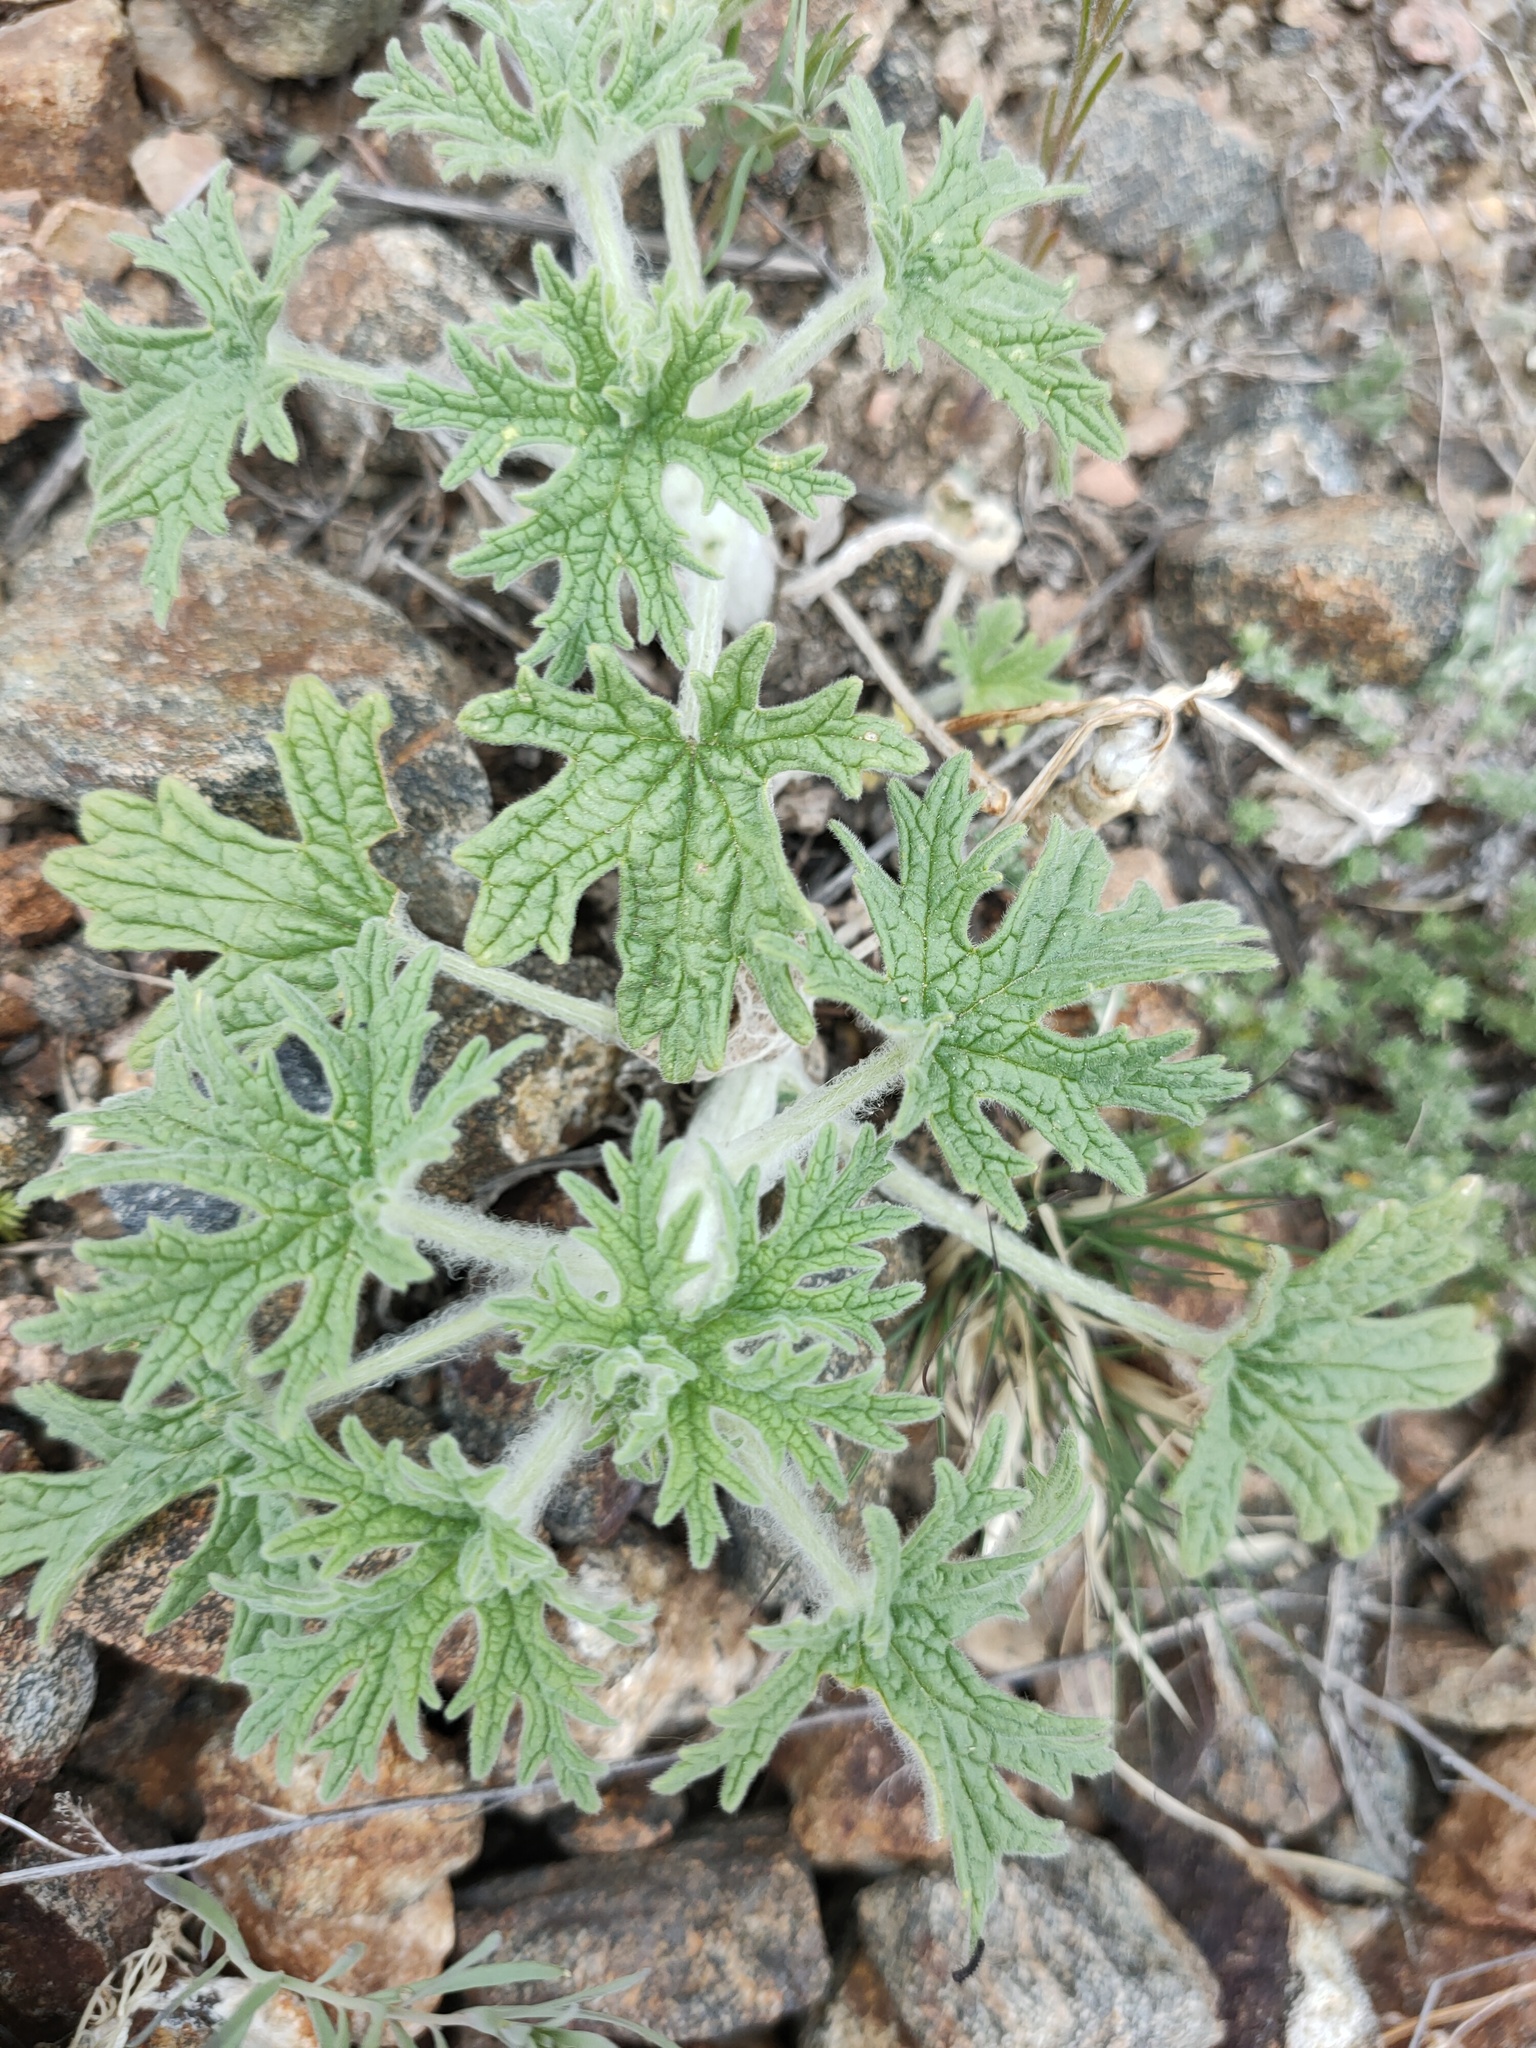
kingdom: Plantae
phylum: Tracheophyta
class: Magnoliopsida
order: Lamiales
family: Lamiaceae
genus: Panzerina
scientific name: Panzerina lanata
